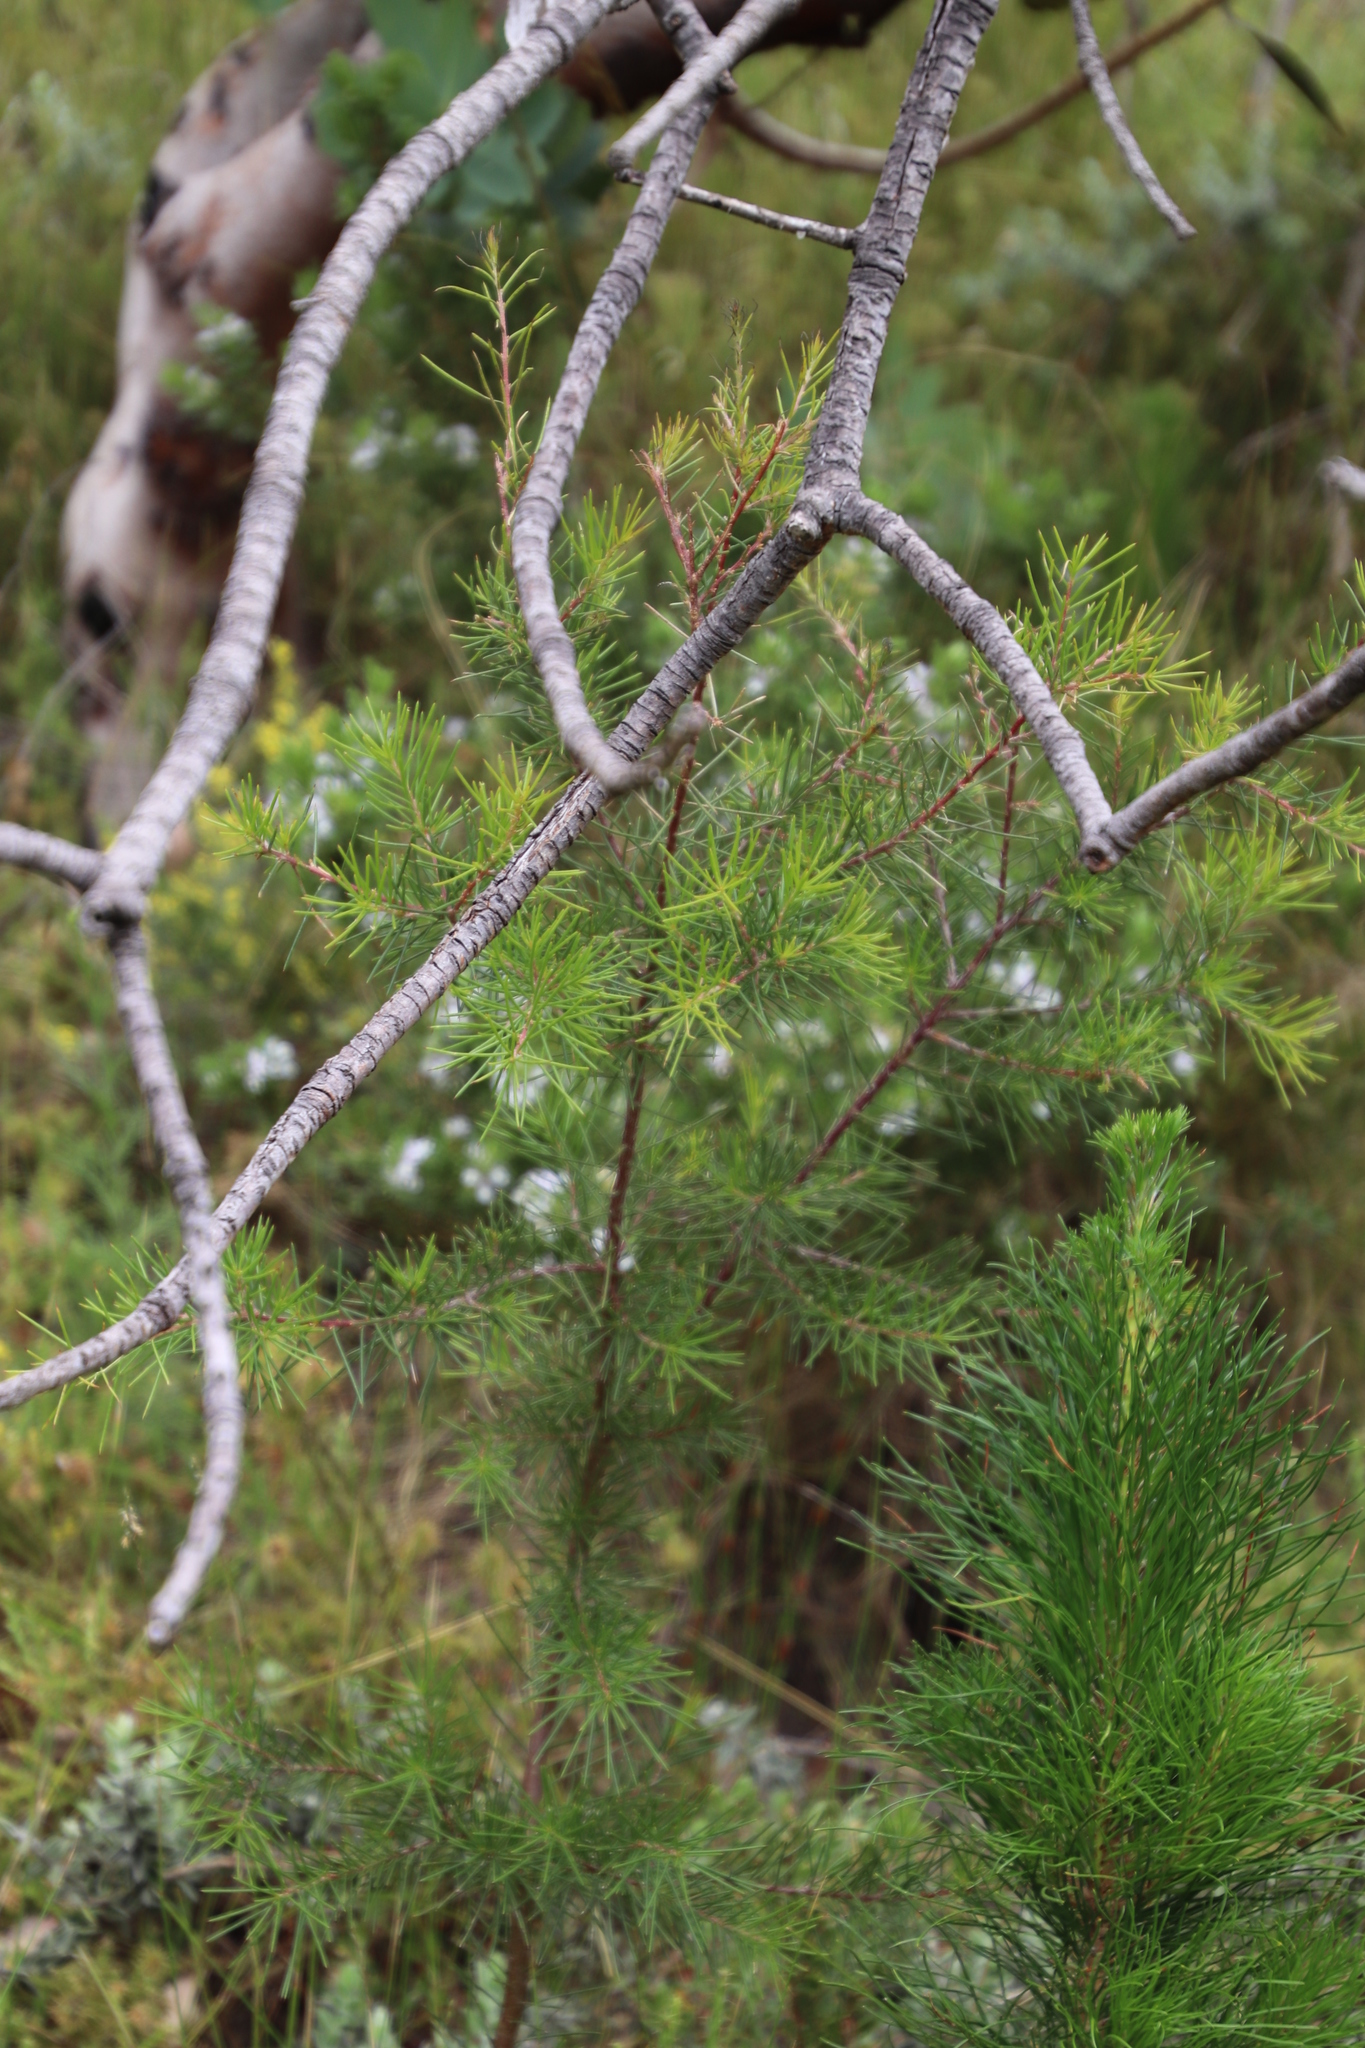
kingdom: Plantae
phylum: Tracheophyta
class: Magnoliopsida
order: Proteales
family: Proteaceae
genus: Hakea
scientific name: Hakea sericea
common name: Needle bush
